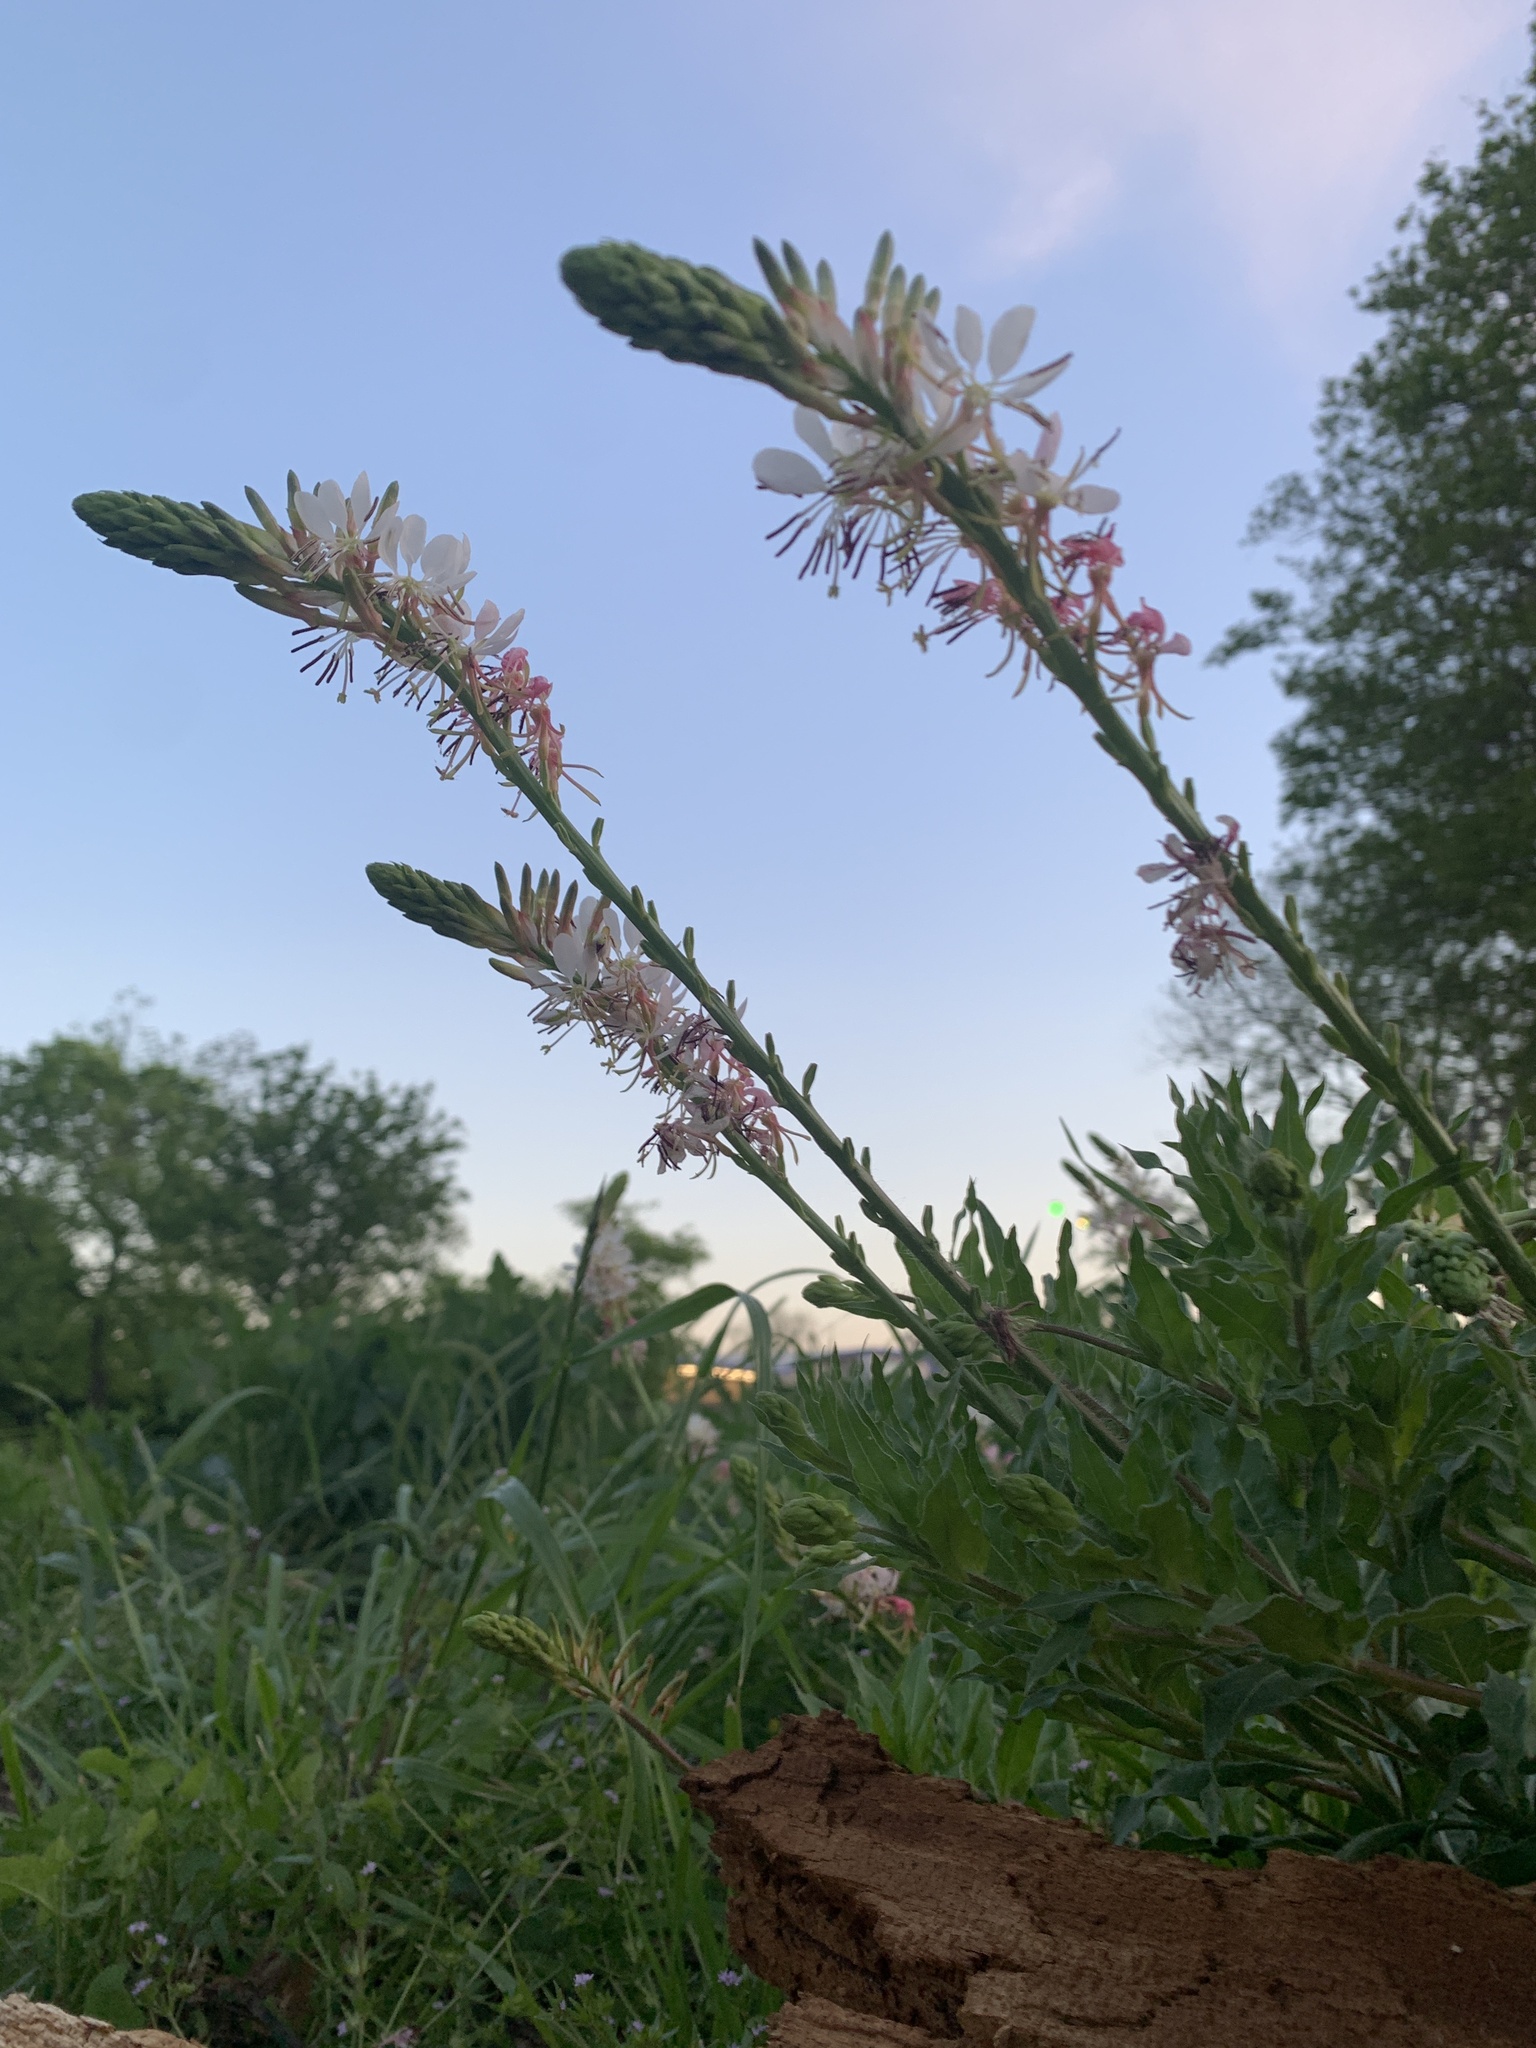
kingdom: Plantae
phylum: Tracheophyta
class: Magnoliopsida
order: Myrtales
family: Onagraceae
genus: Oenothera
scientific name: Oenothera suffulta
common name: Kisses
